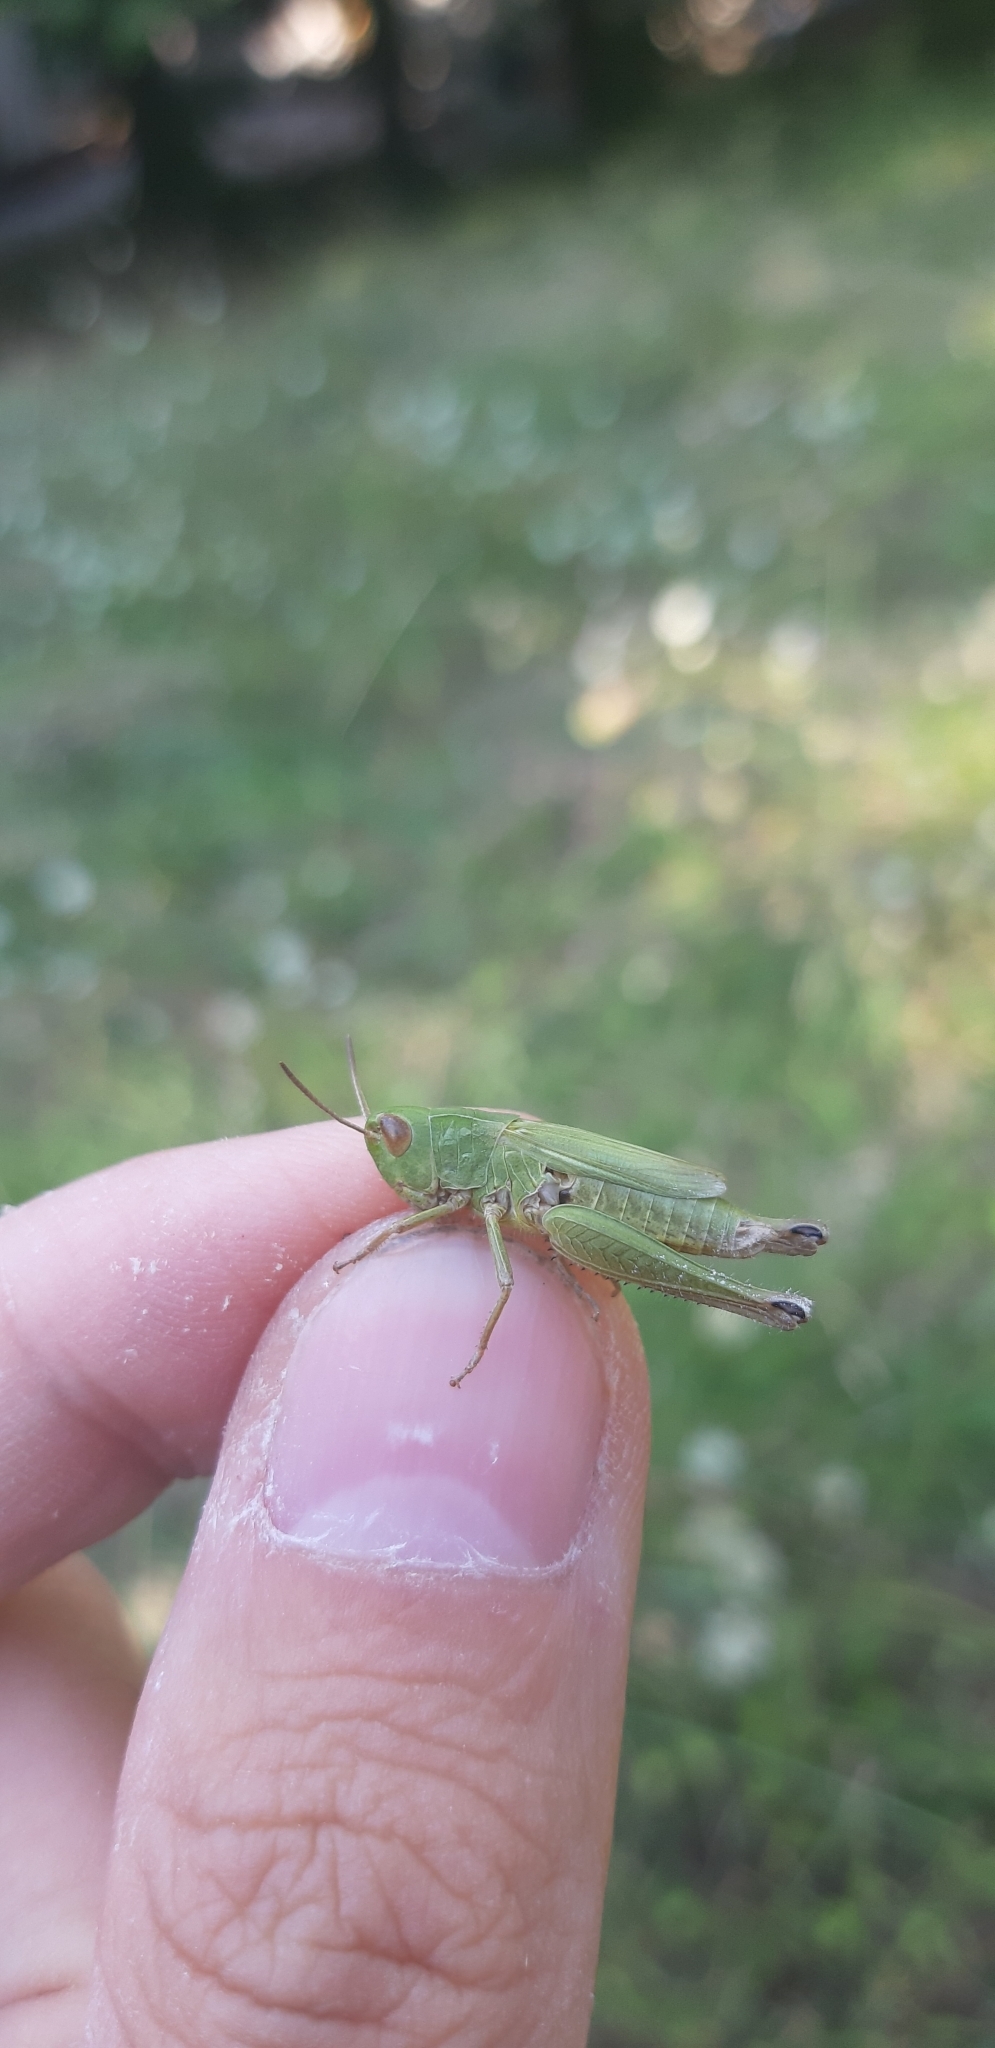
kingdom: Animalia
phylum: Arthropoda
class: Insecta
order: Orthoptera
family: Acrididae
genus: Chorthippus
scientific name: Chorthippus dorsatus
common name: Steppe grasshopper
